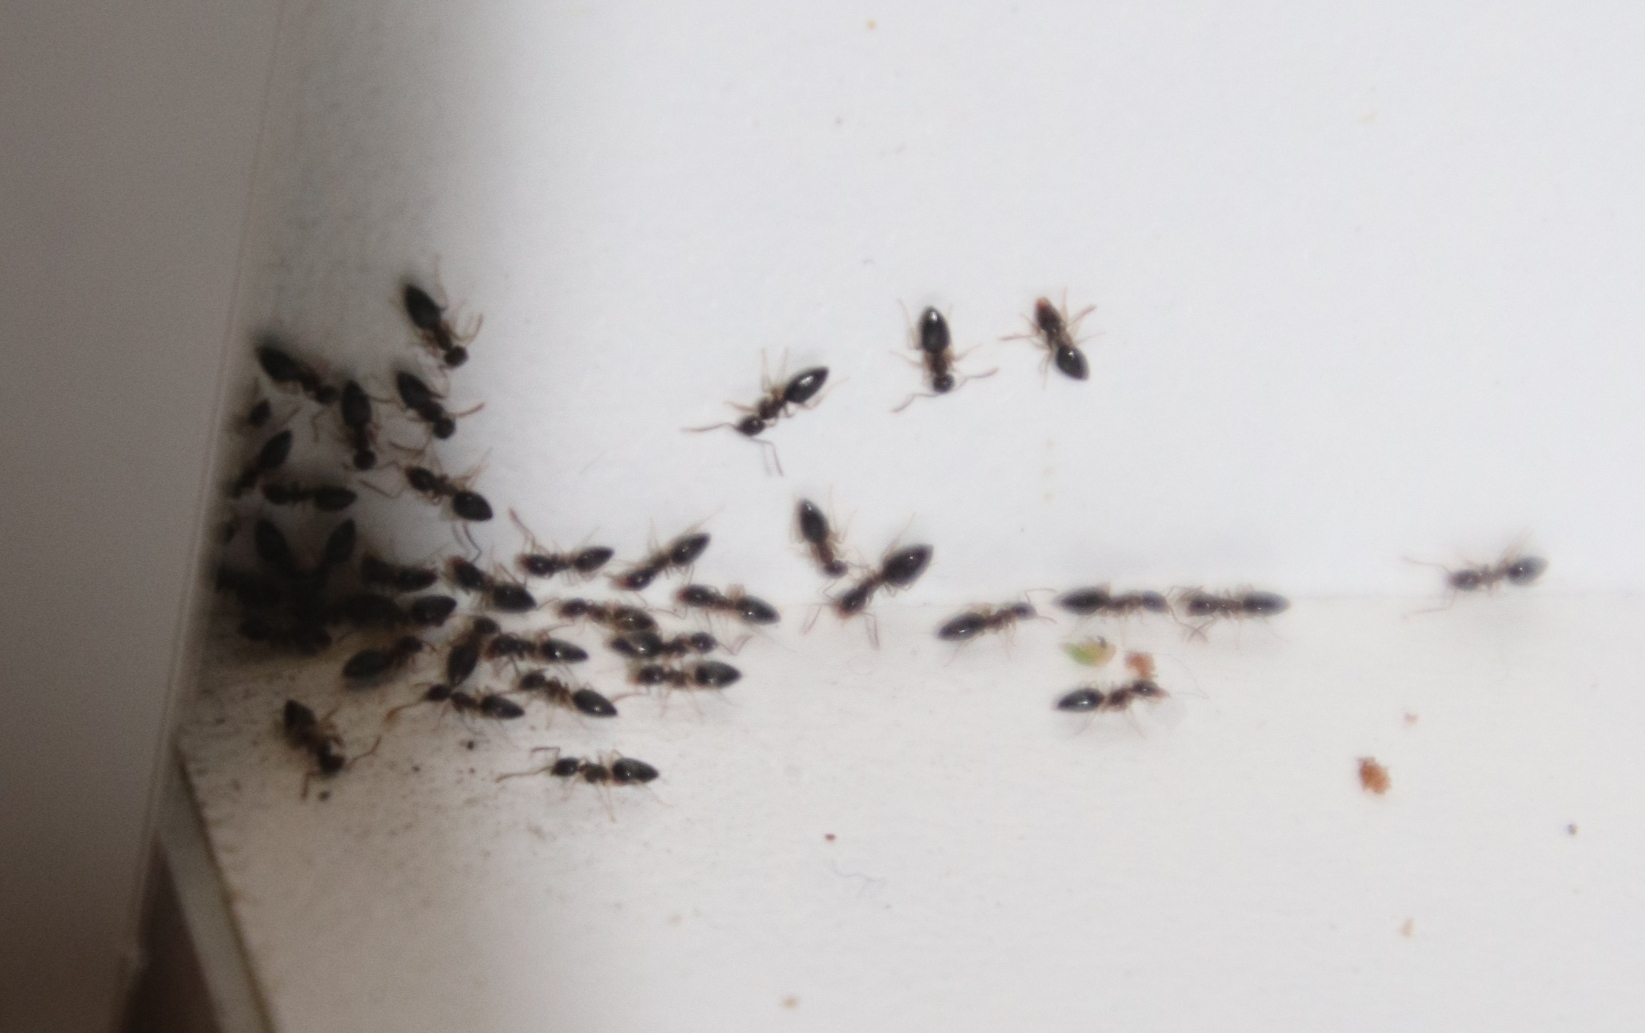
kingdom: Animalia
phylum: Arthropoda
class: Insecta
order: Hymenoptera
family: Formicidae
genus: Tapinoma
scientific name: Tapinoma pallipes
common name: Ant
